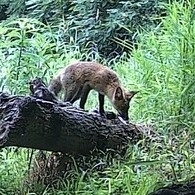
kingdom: Animalia
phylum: Chordata
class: Mammalia
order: Carnivora
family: Canidae
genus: Vulpes
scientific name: Vulpes vulpes
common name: Red fox
